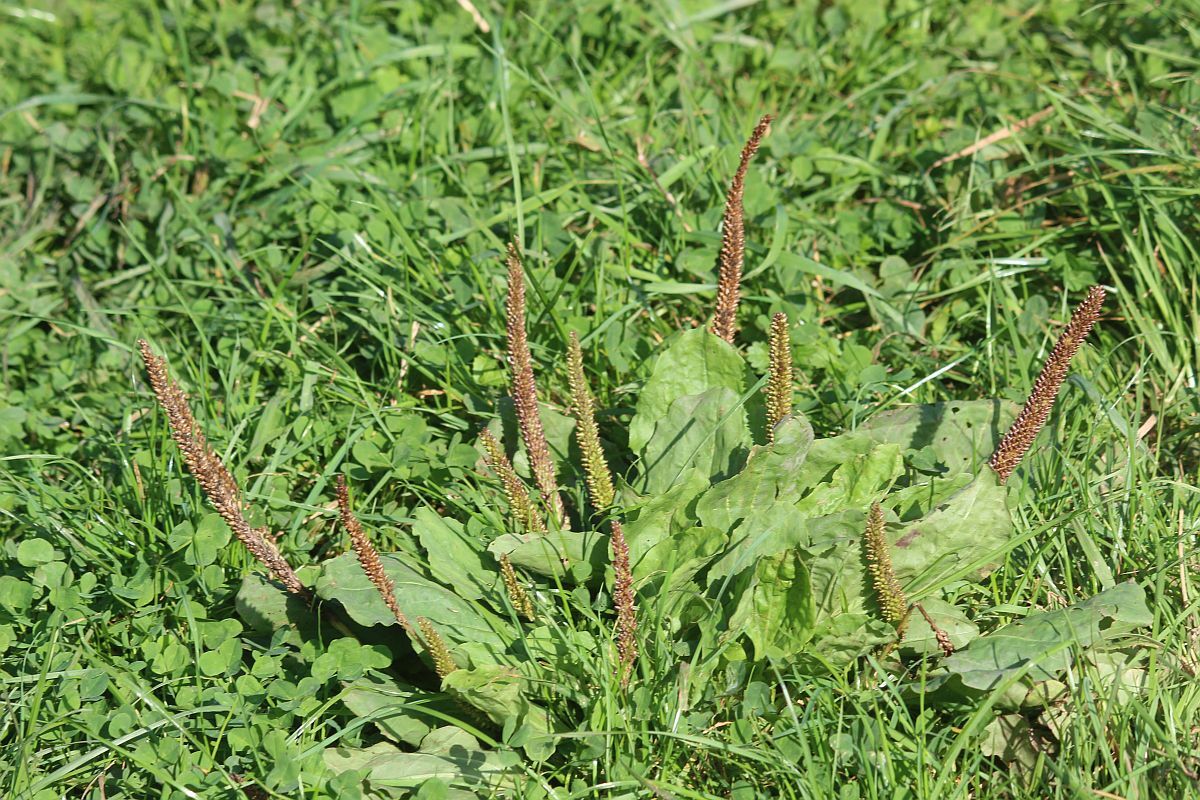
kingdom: Plantae
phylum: Tracheophyta
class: Magnoliopsida
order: Lamiales
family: Plantaginaceae
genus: Plantago
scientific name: Plantago major
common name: Common plantain
